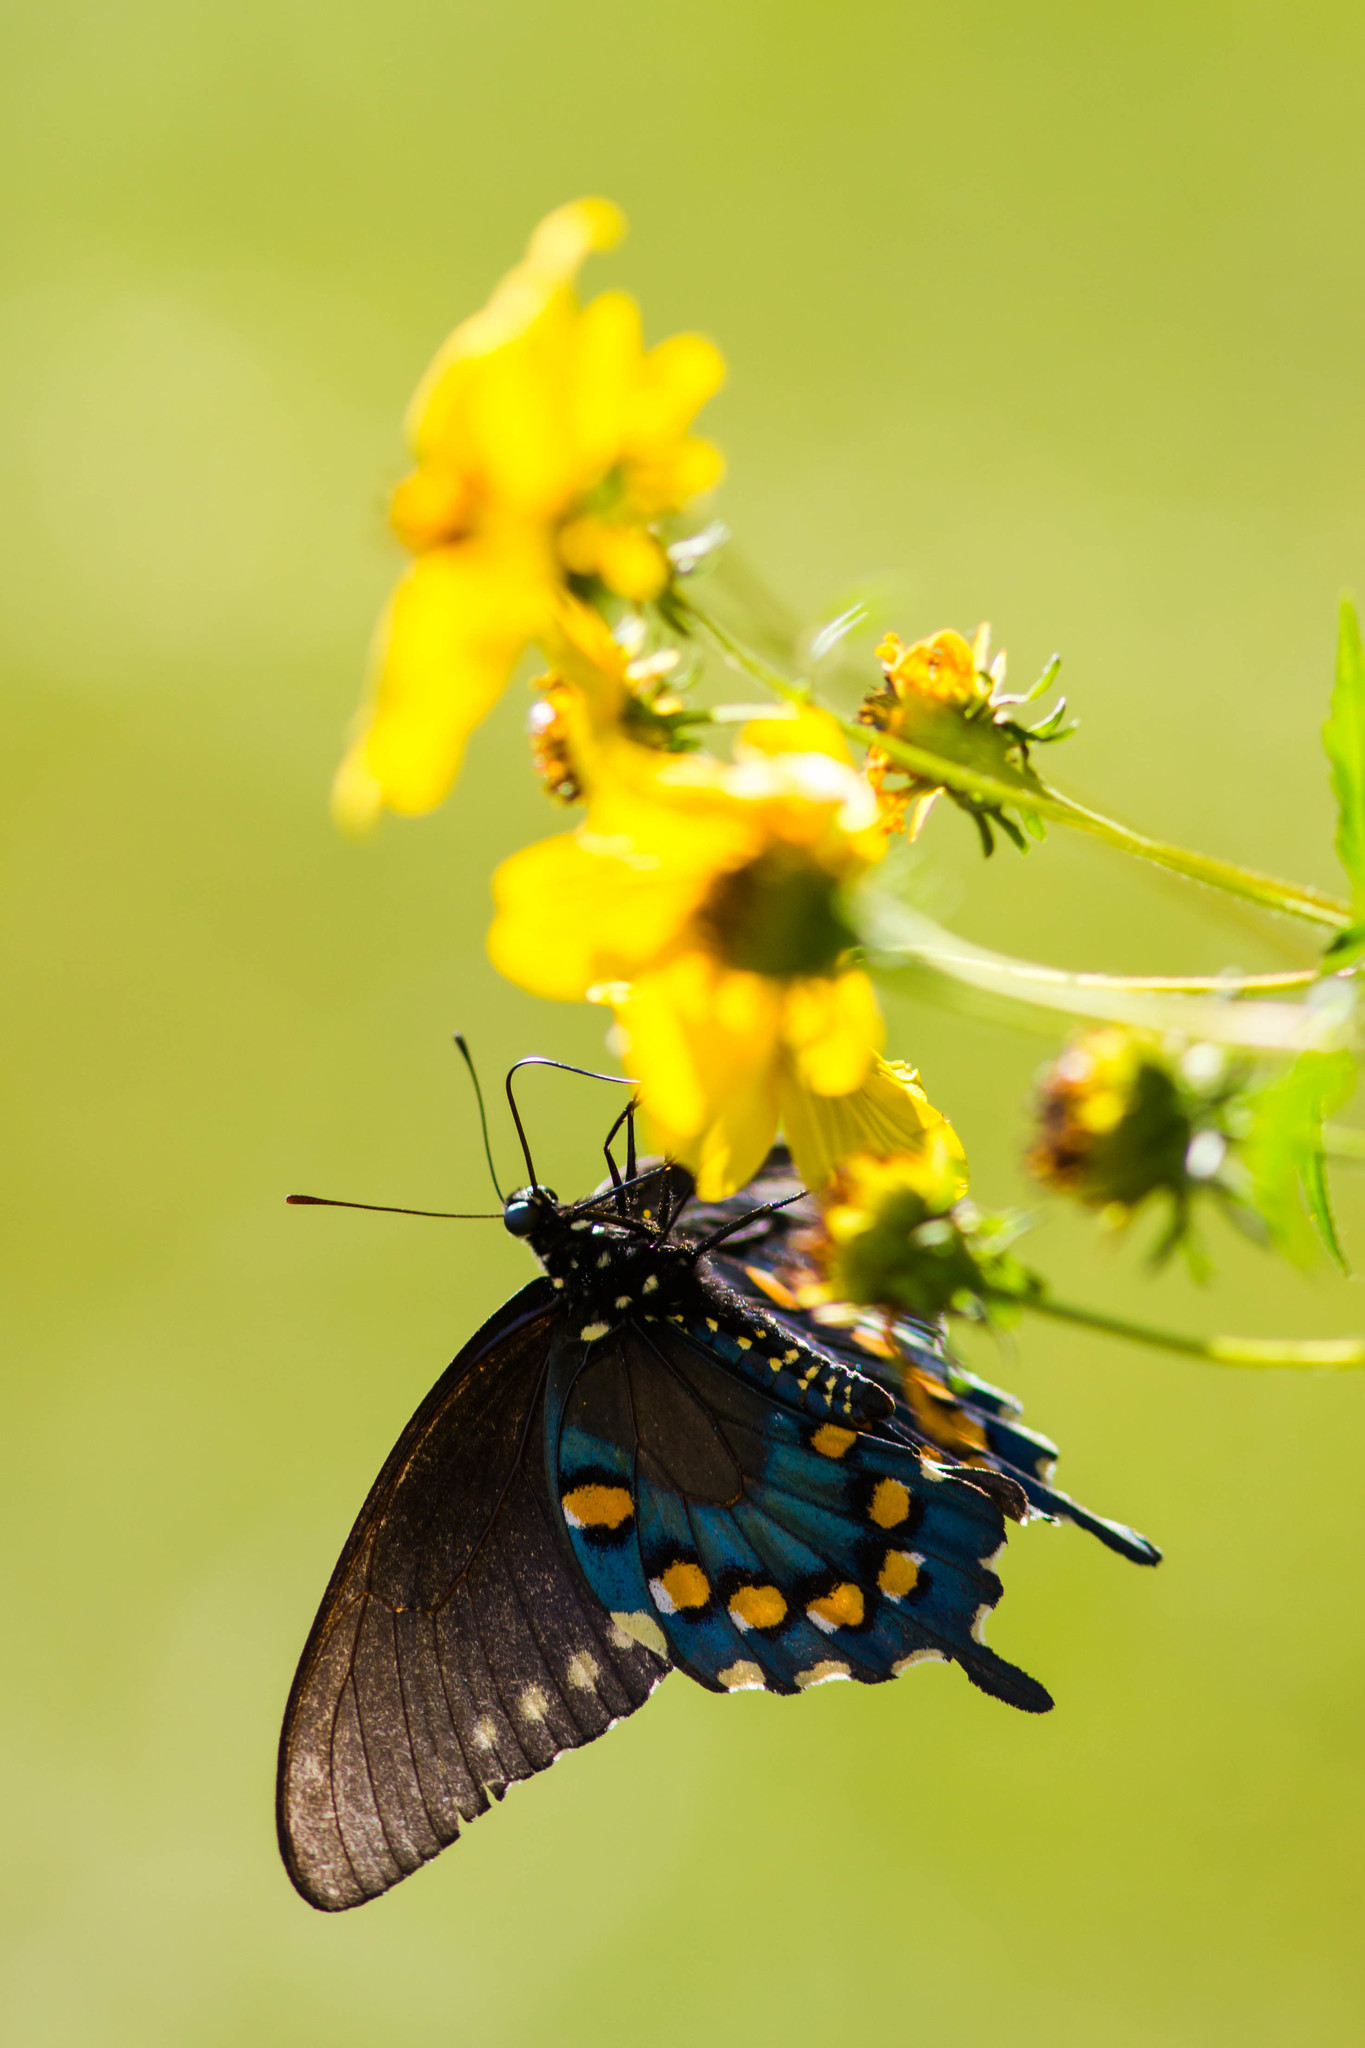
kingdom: Animalia
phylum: Arthropoda
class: Insecta
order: Lepidoptera
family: Papilionidae
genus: Battus
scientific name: Battus philenor
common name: Pipevine swallowtail
